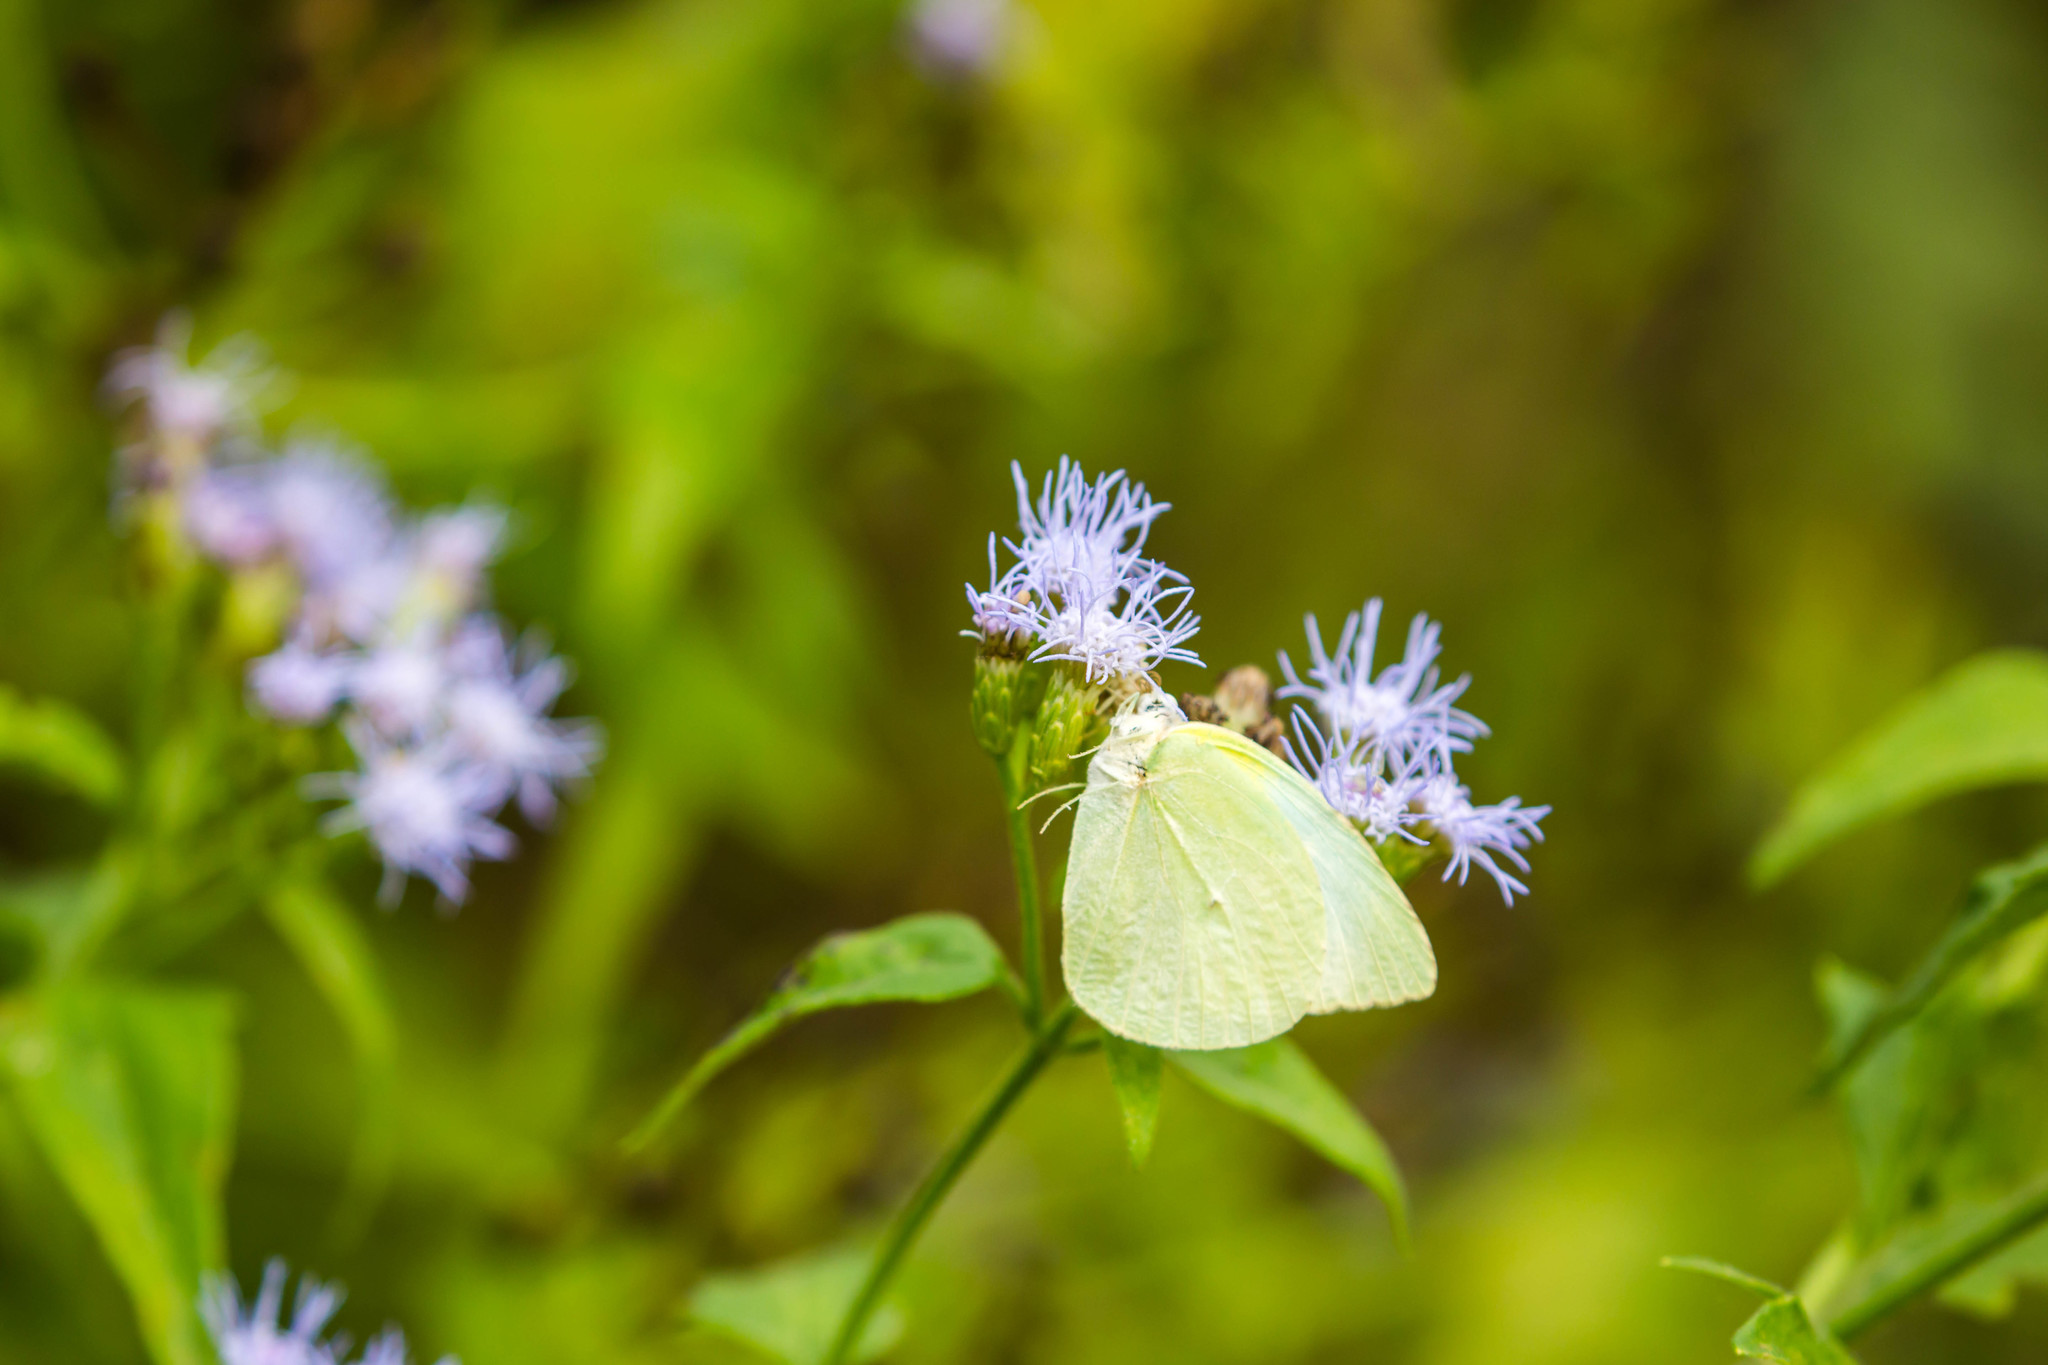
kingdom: Animalia
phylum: Arthropoda
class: Insecta
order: Lepidoptera
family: Pieridae
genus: Kricogonia
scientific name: Kricogonia lyside
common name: Guayacan sulphur,
